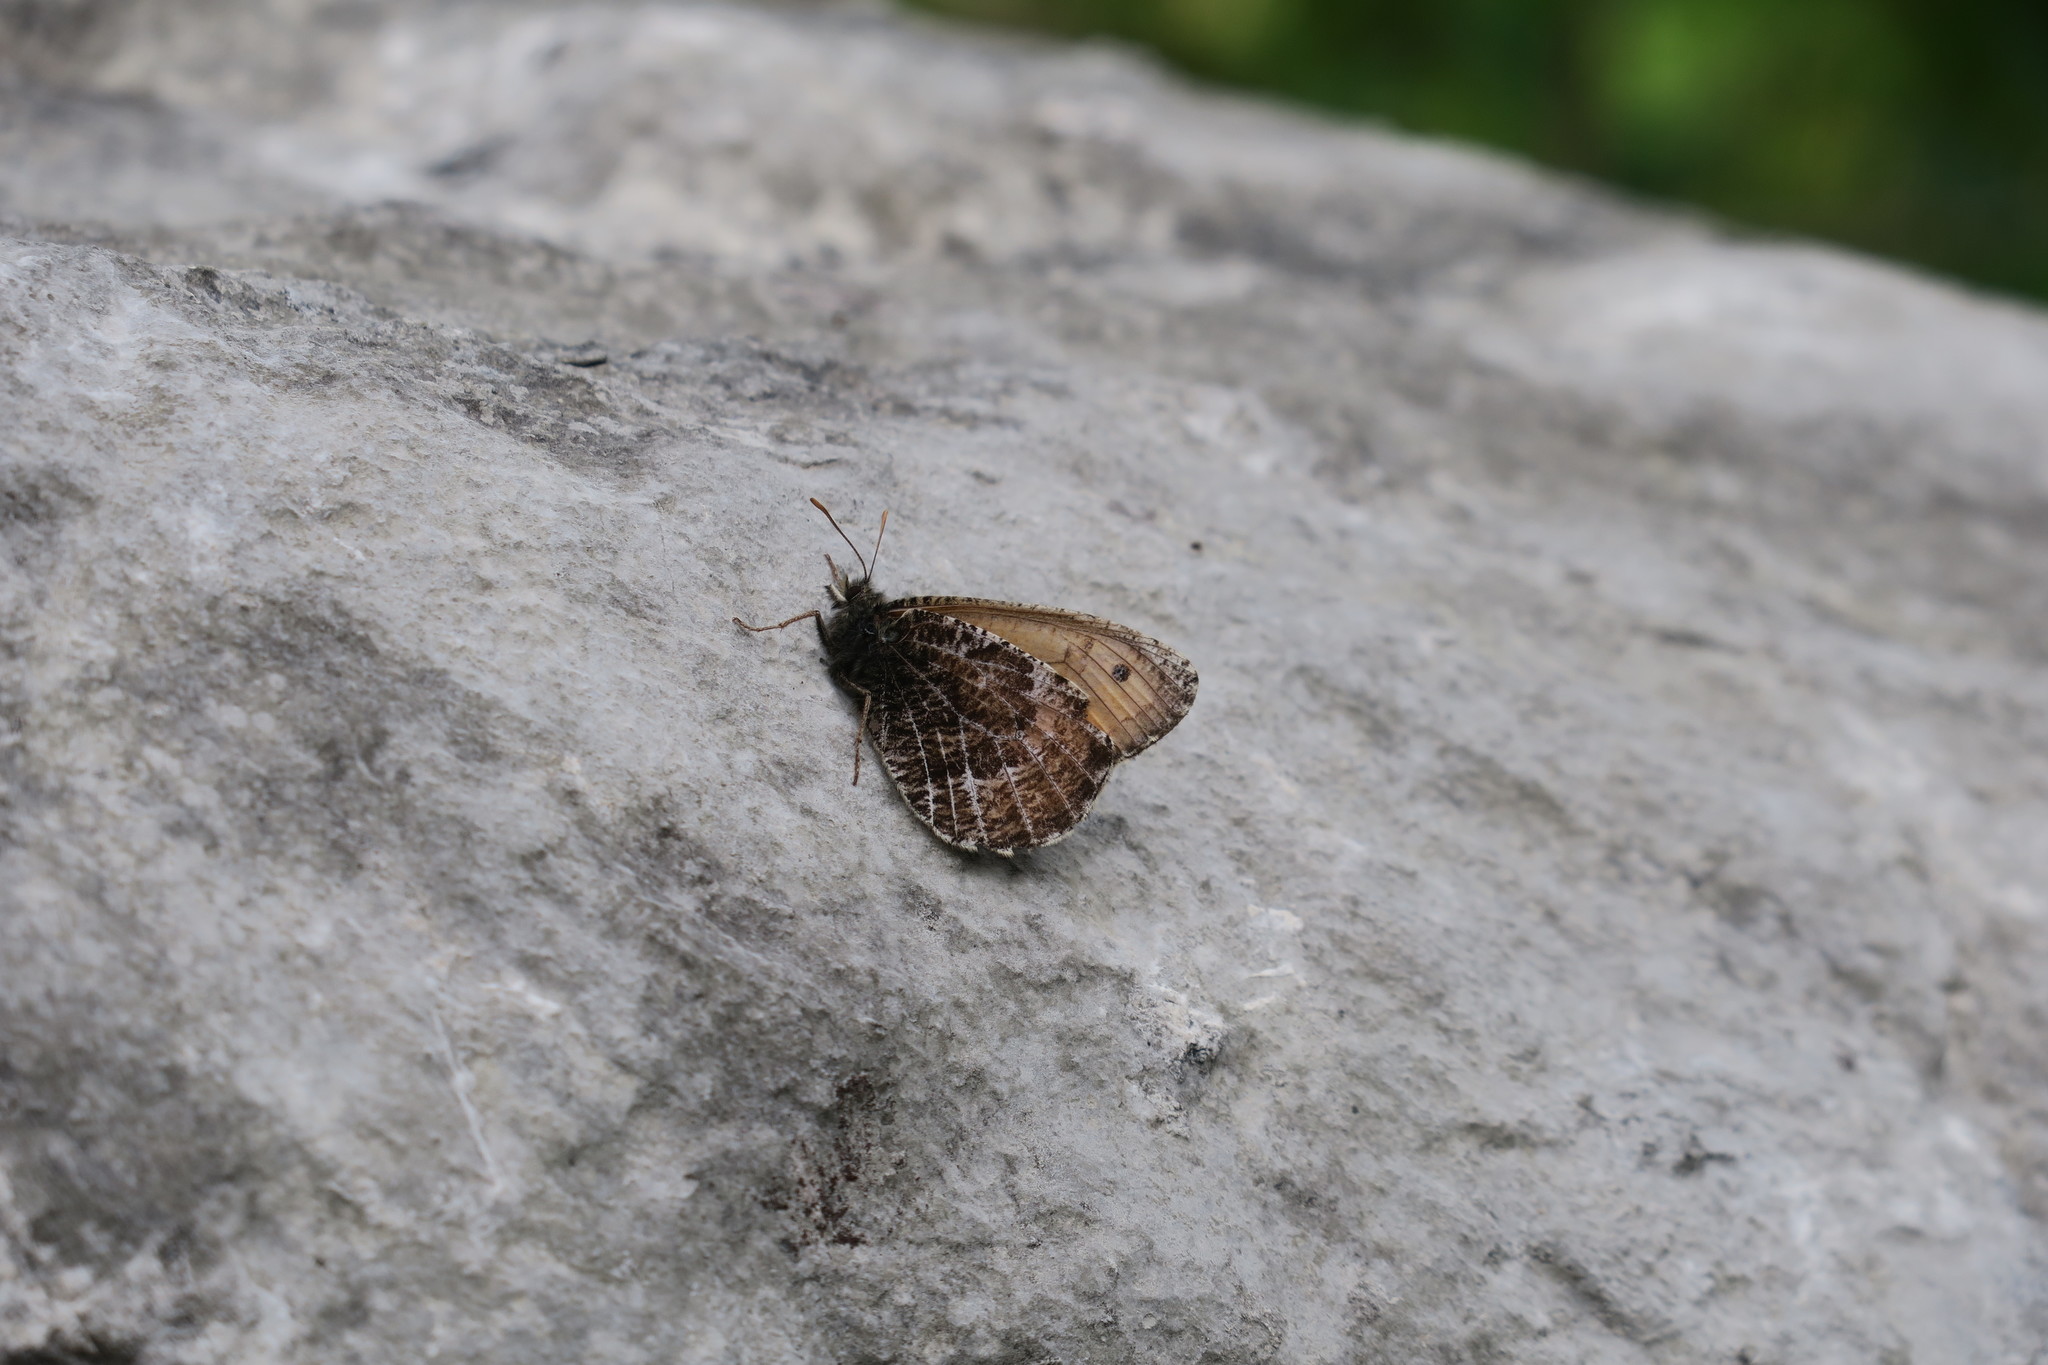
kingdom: Animalia
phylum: Arthropoda
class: Insecta
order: Lepidoptera
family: Nymphalidae
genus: Oeneis
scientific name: Oeneis aello
